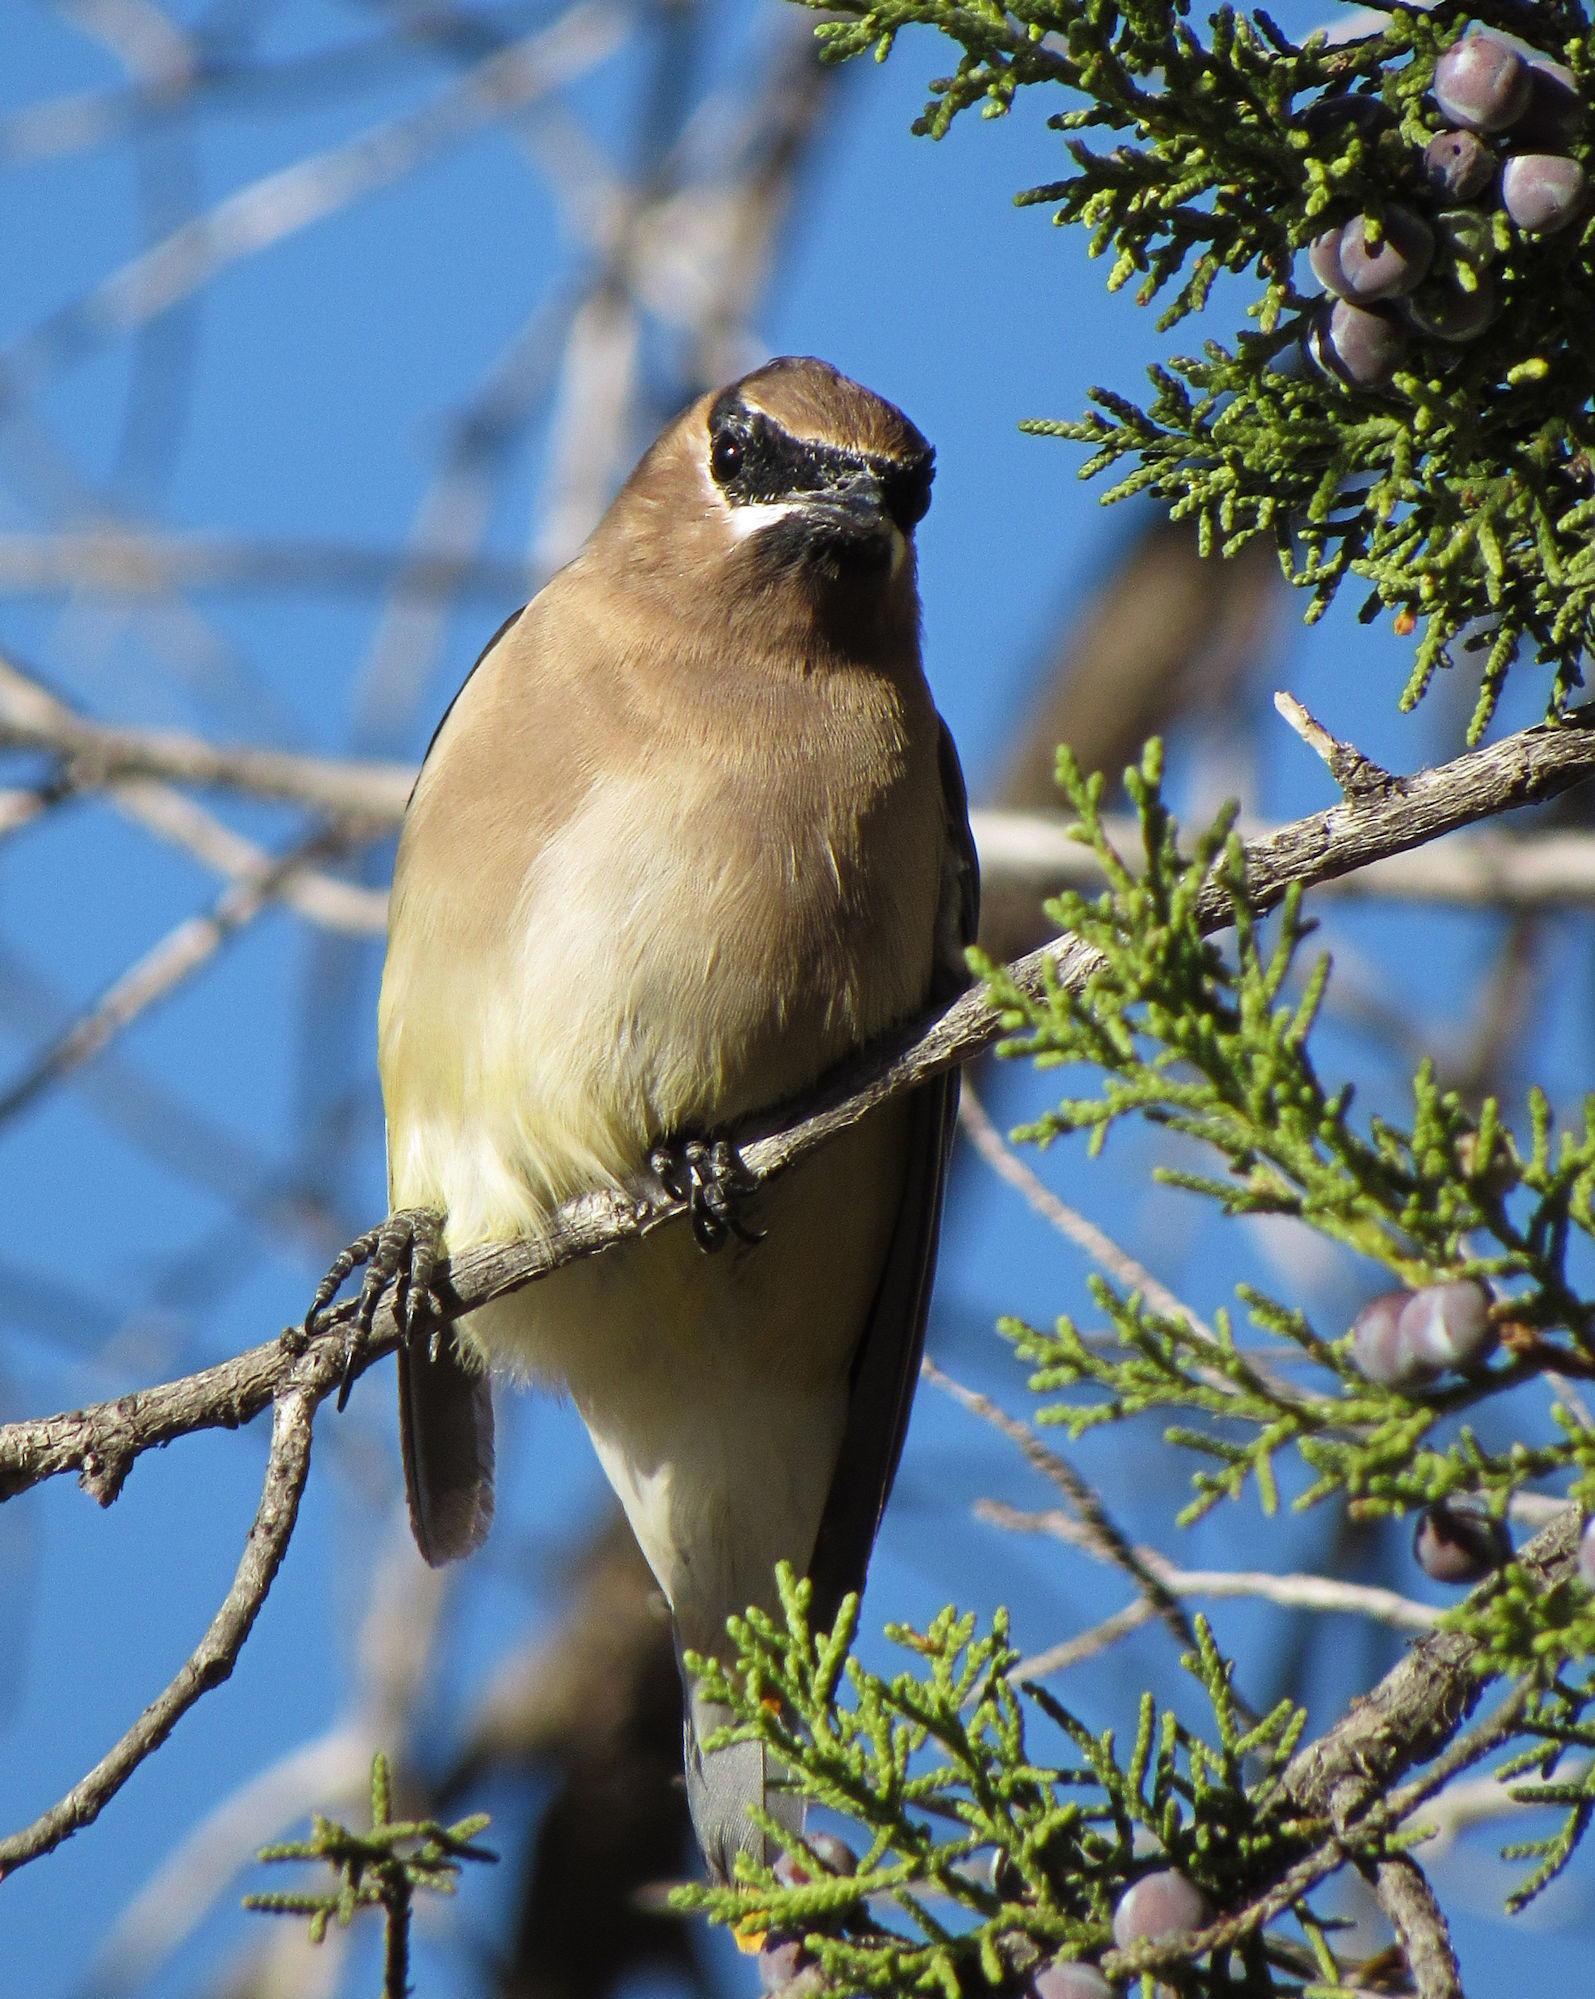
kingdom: Animalia
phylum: Chordata
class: Aves
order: Passeriformes
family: Bombycillidae
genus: Bombycilla
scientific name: Bombycilla cedrorum
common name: Cedar waxwing
